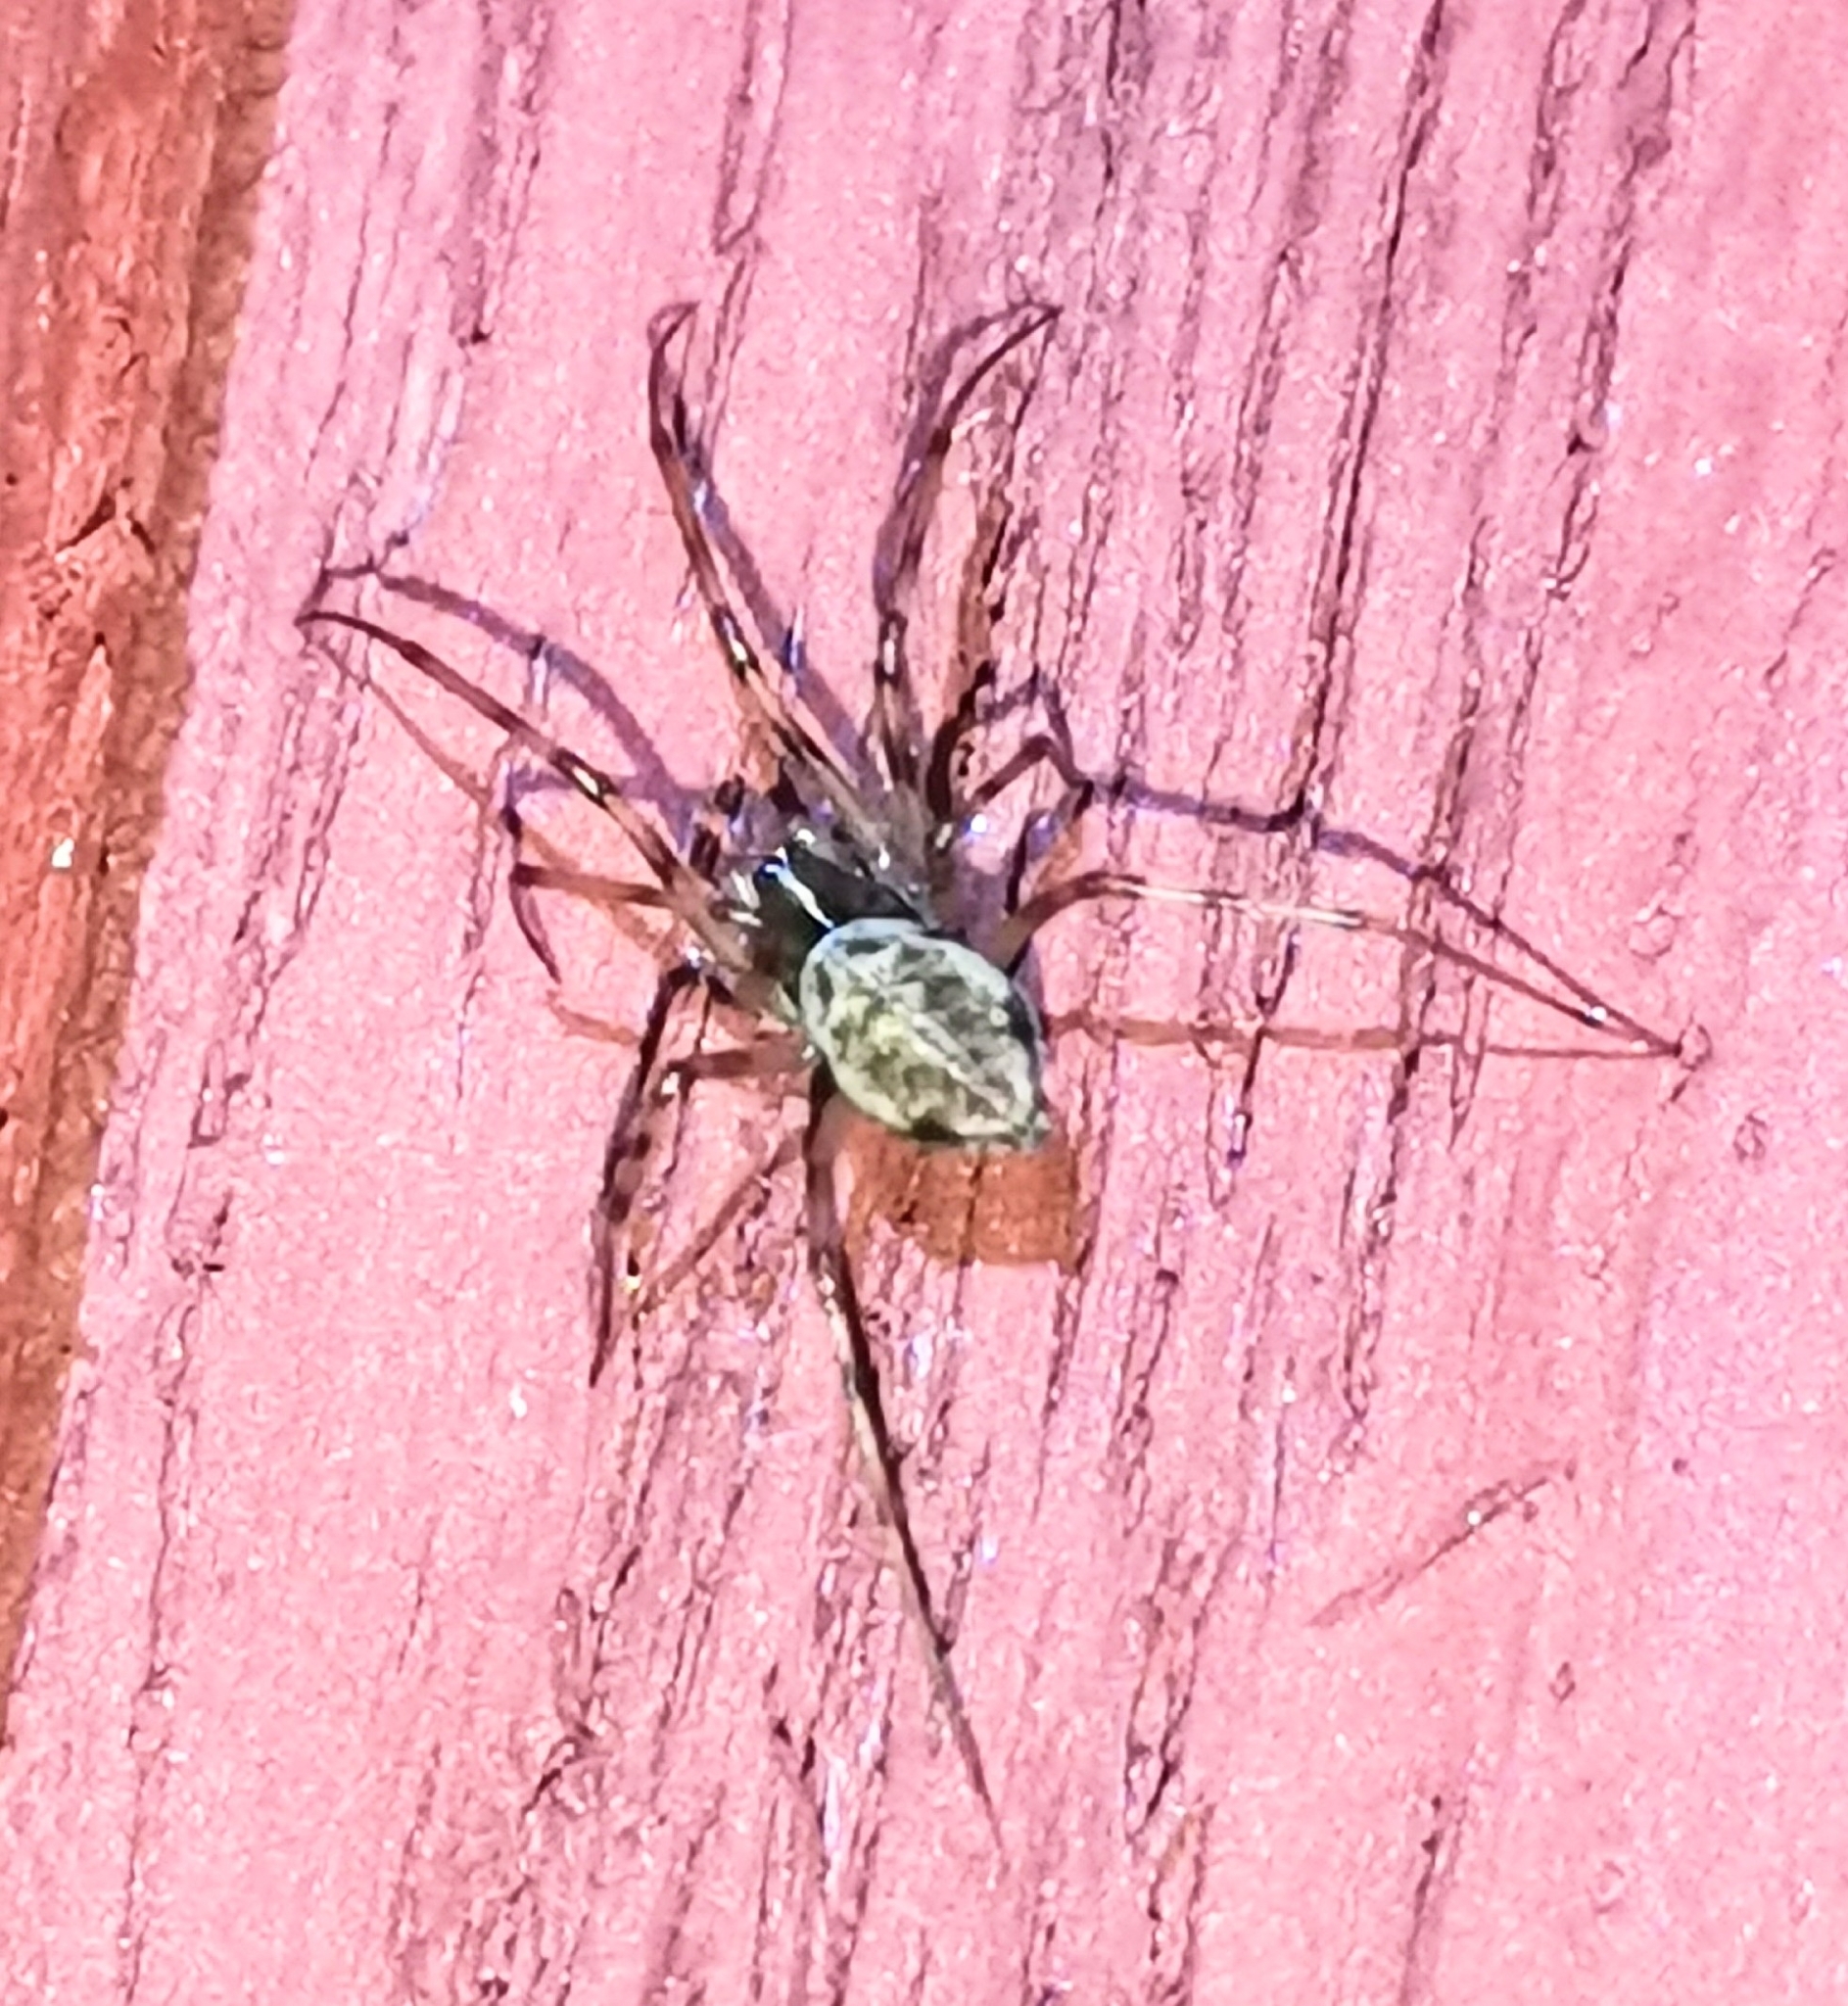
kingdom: Animalia
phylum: Arthropoda
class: Arachnida
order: Araneae
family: Linyphiidae
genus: Drapetisca
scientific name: Drapetisca socialis
